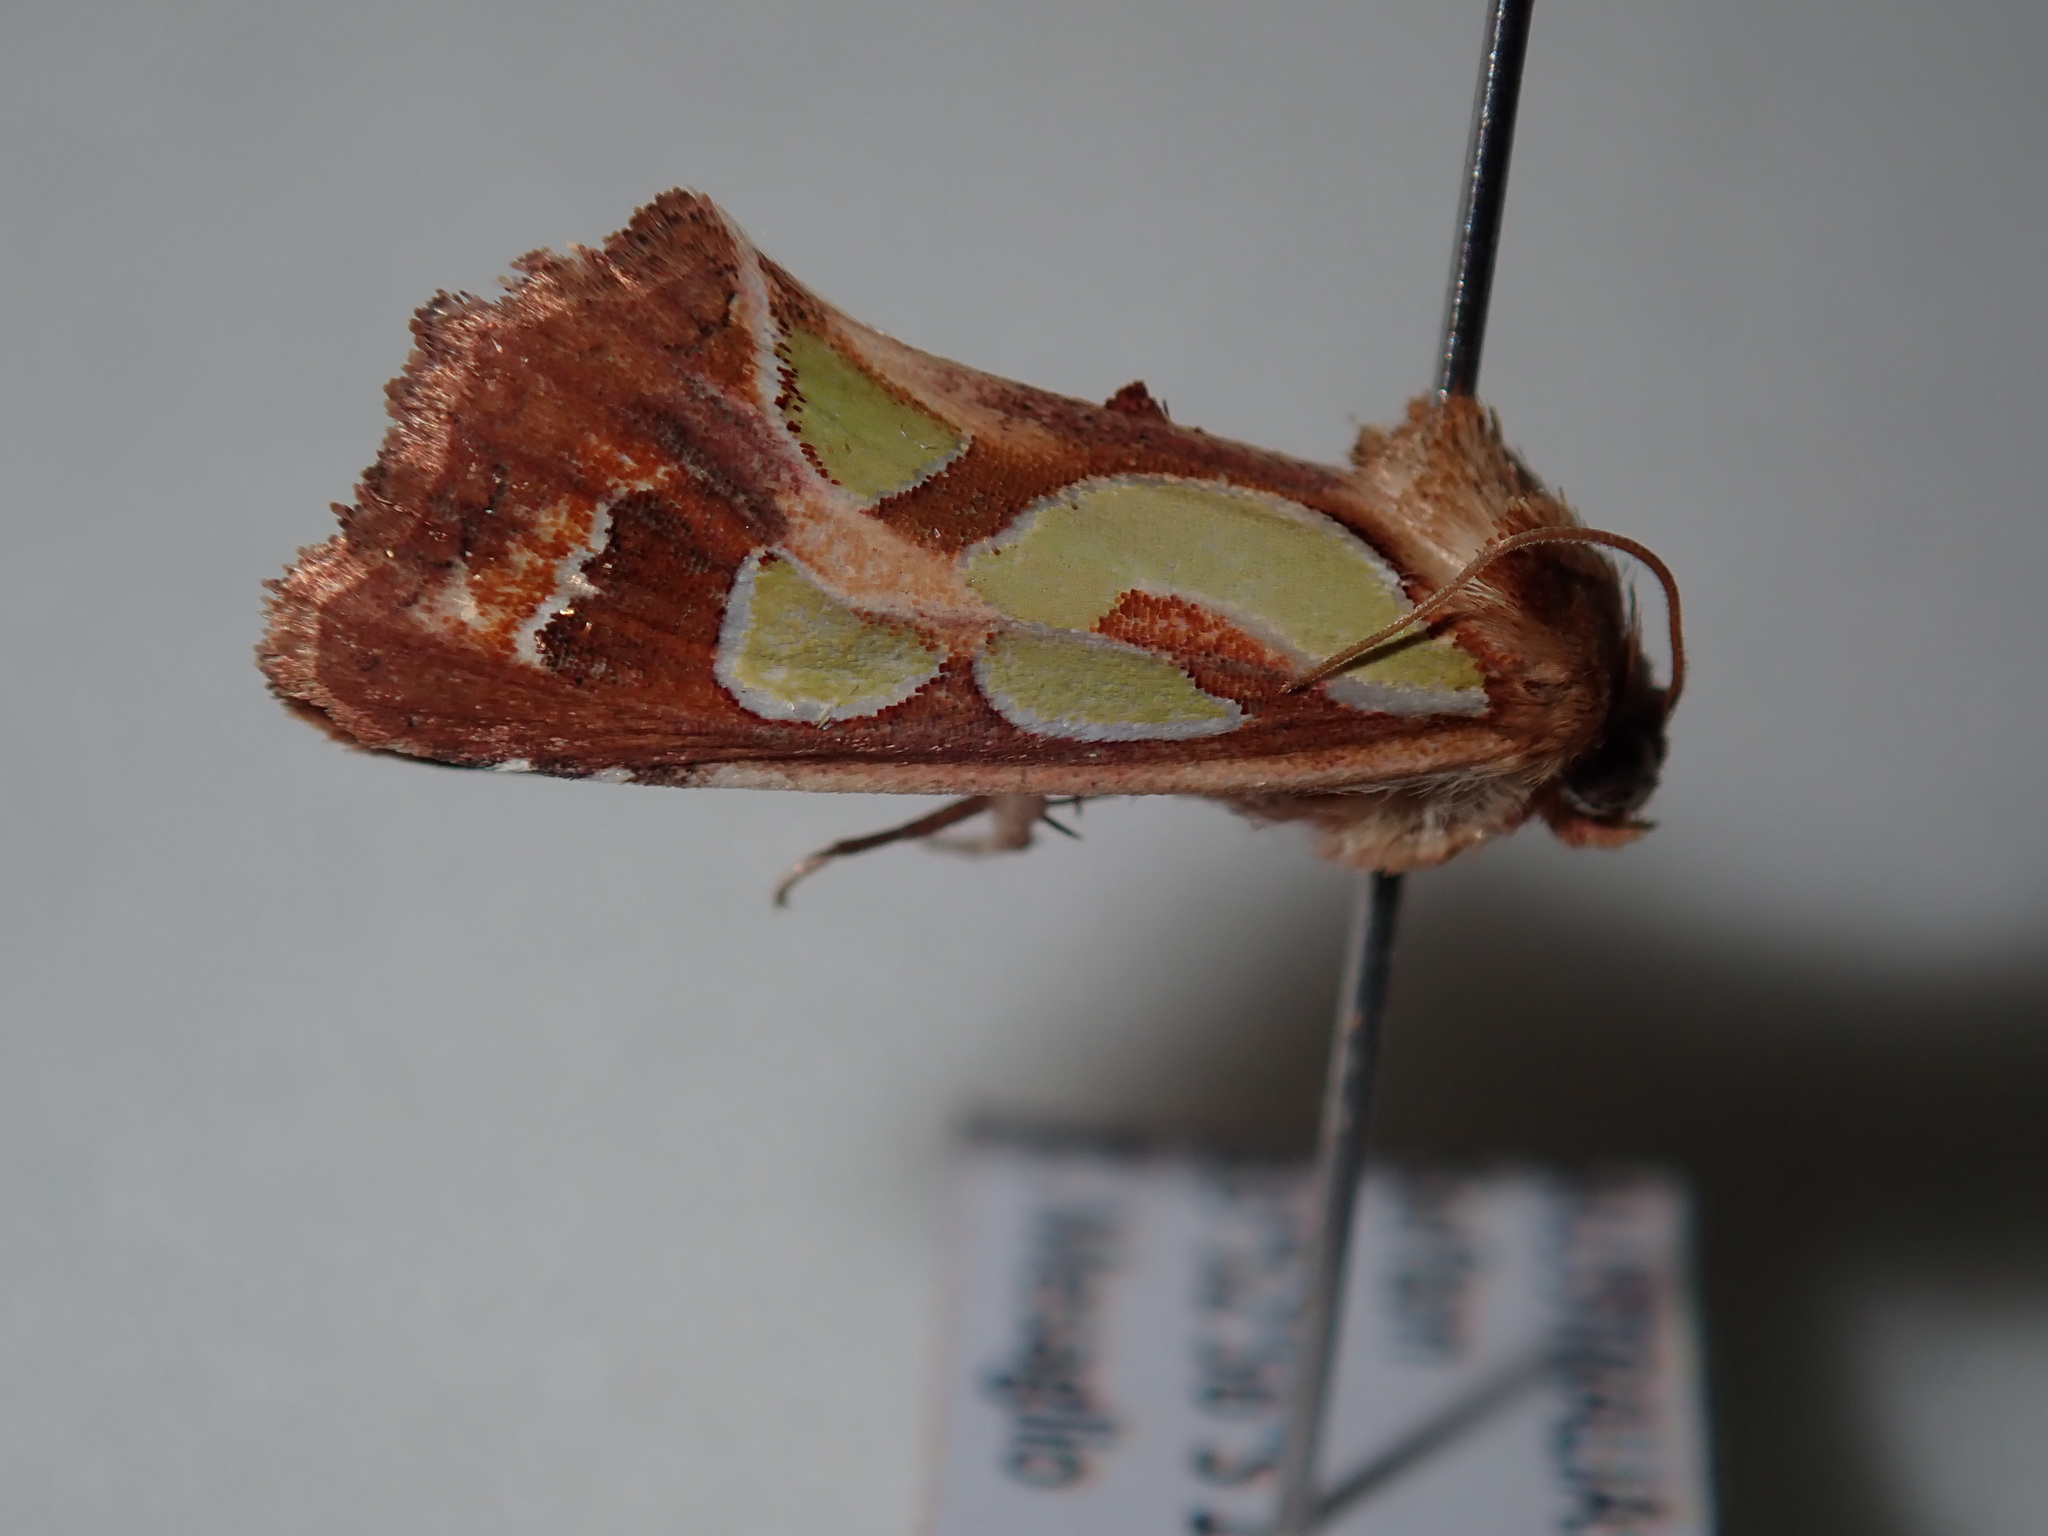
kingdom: Animalia
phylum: Arthropoda
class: Insecta
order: Lepidoptera
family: Noctuidae
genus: Cosmodes
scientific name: Cosmodes elegans
